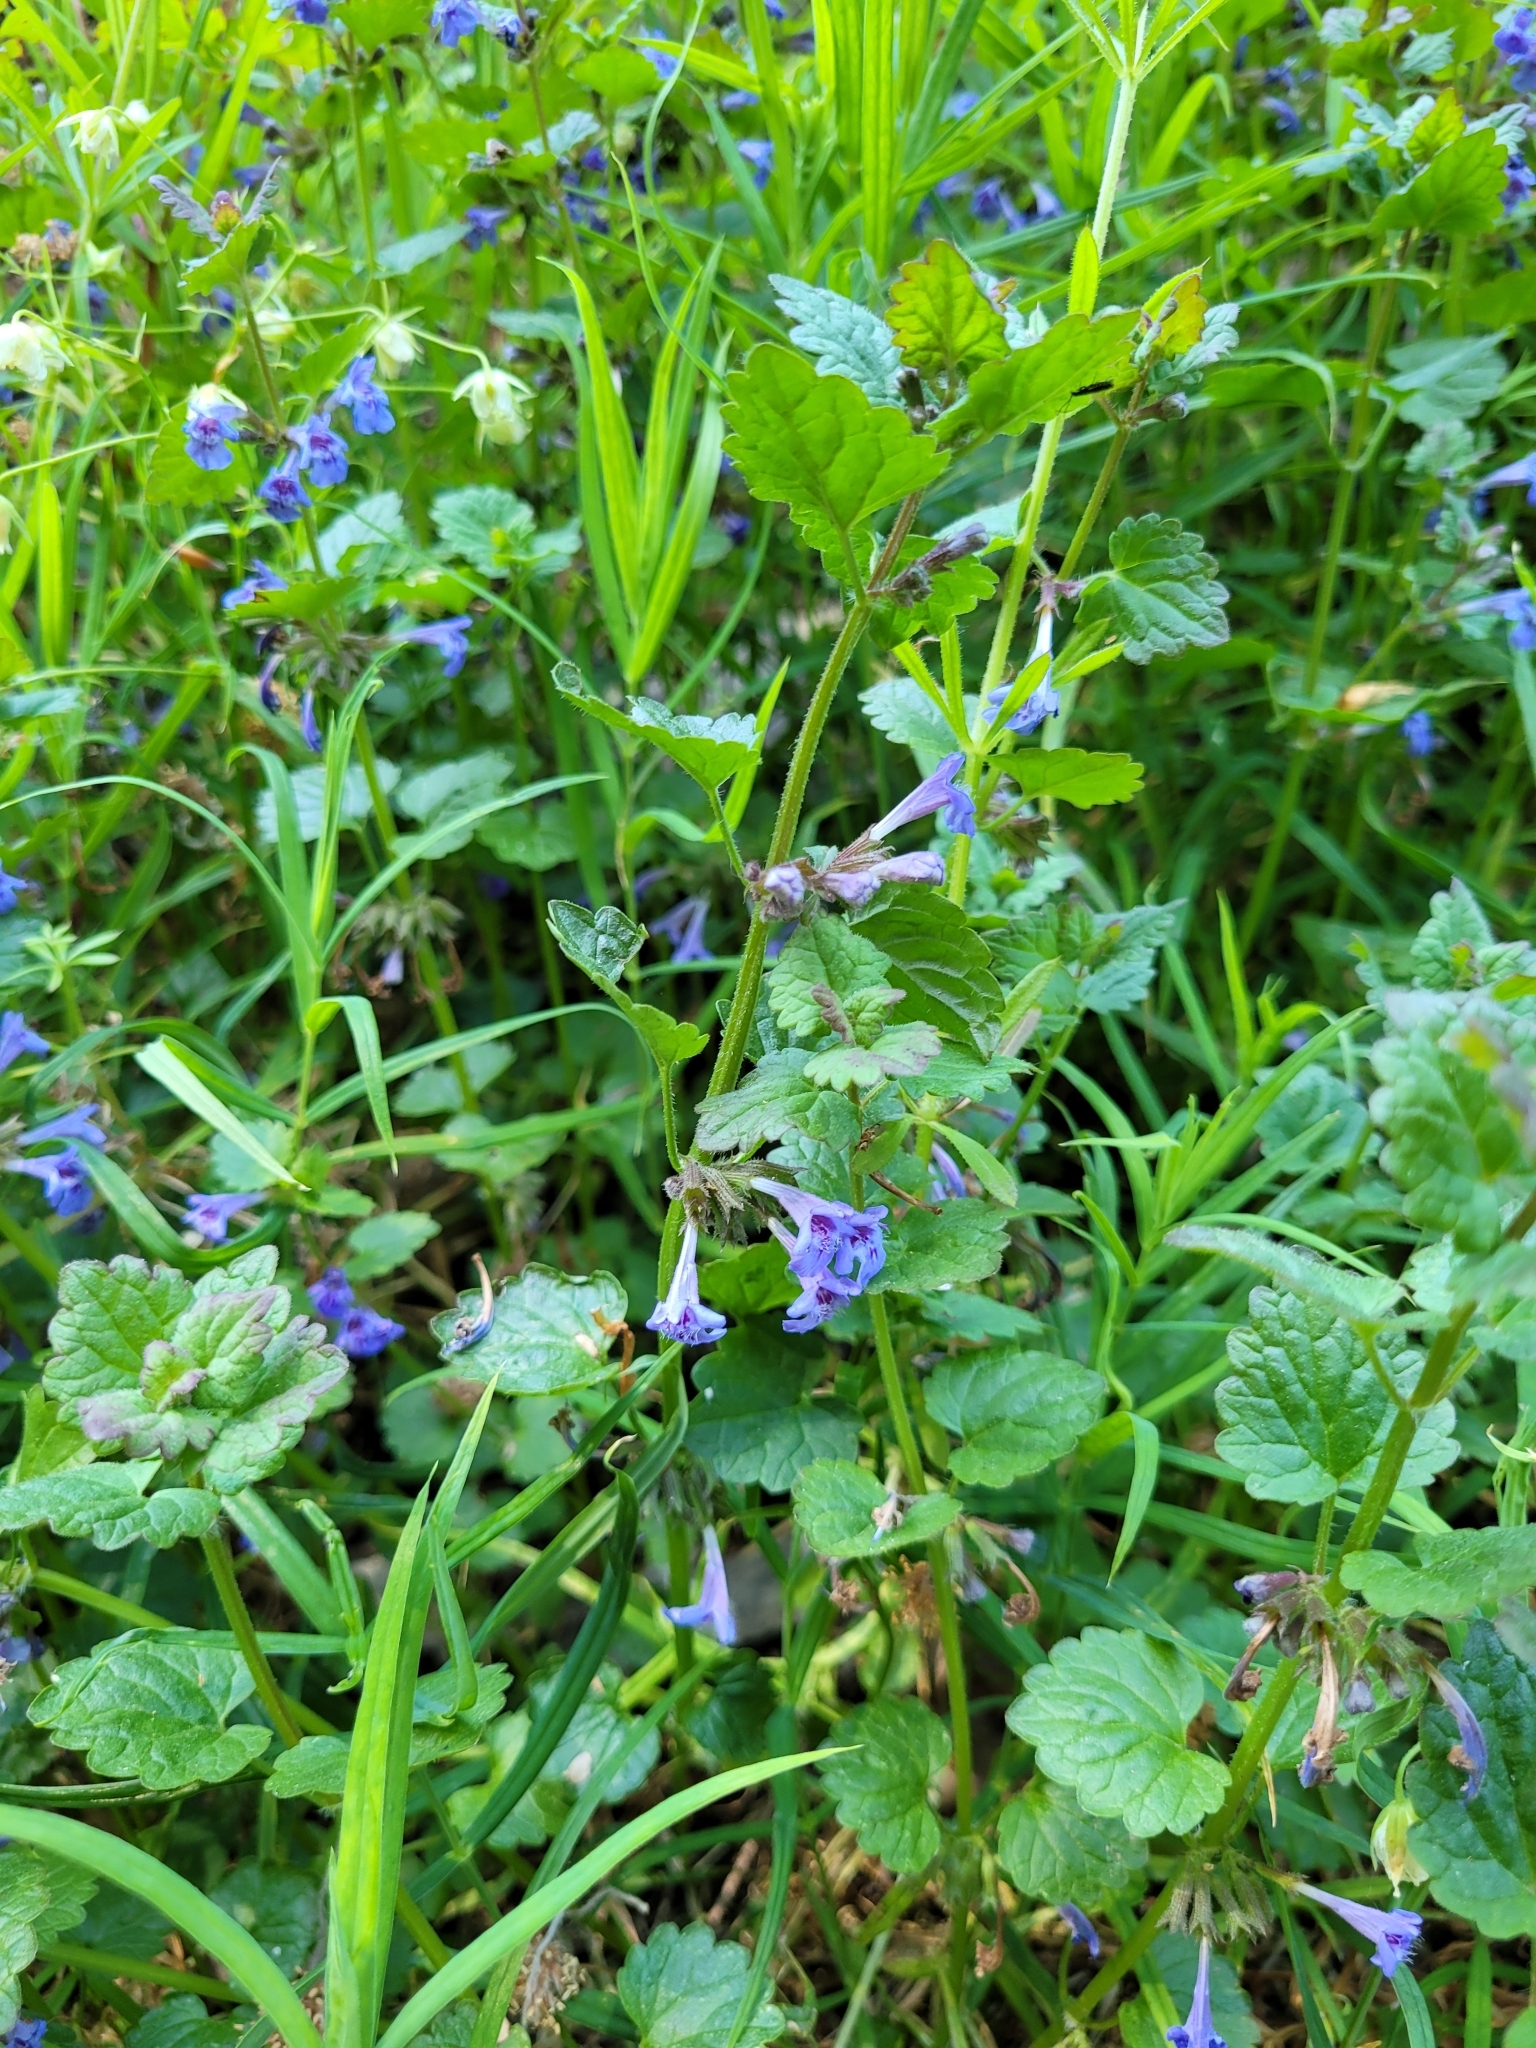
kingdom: Plantae
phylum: Tracheophyta
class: Magnoliopsida
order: Lamiales
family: Lamiaceae
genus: Glechoma
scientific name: Glechoma hederacea
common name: Ground ivy
